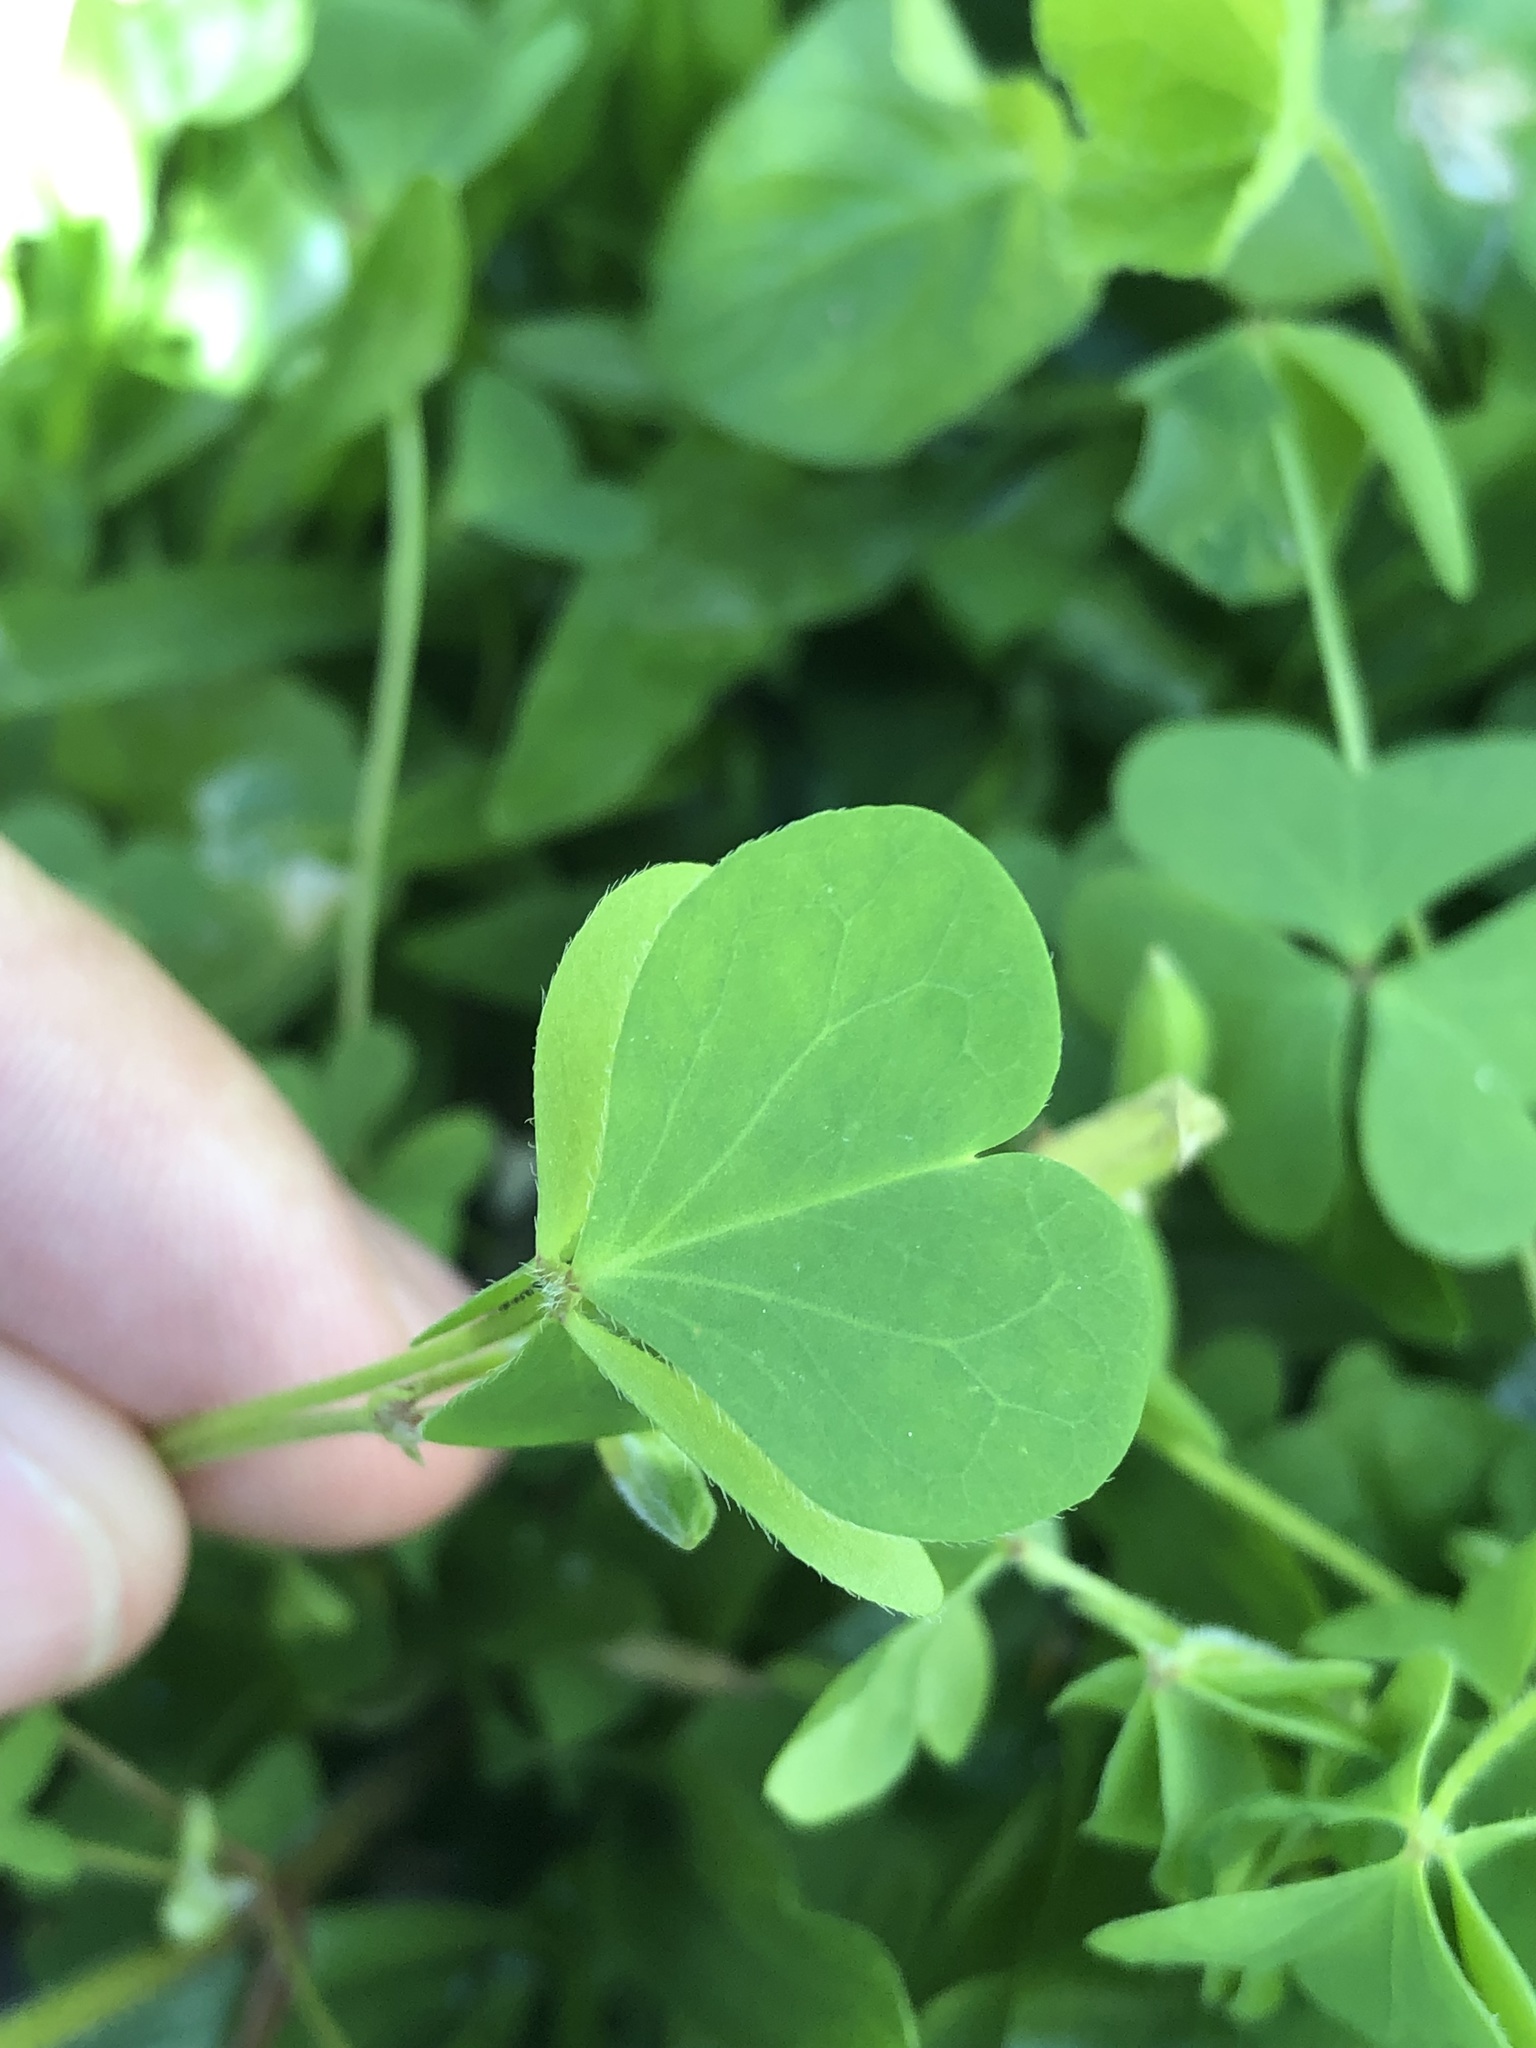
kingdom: Plantae
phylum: Tracheophyta
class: Magnoliopsida
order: Oxalidales
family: Oxalidaceae
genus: Oxalis
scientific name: Oxalis corniculata
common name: Procumbent yellow-sorrel
